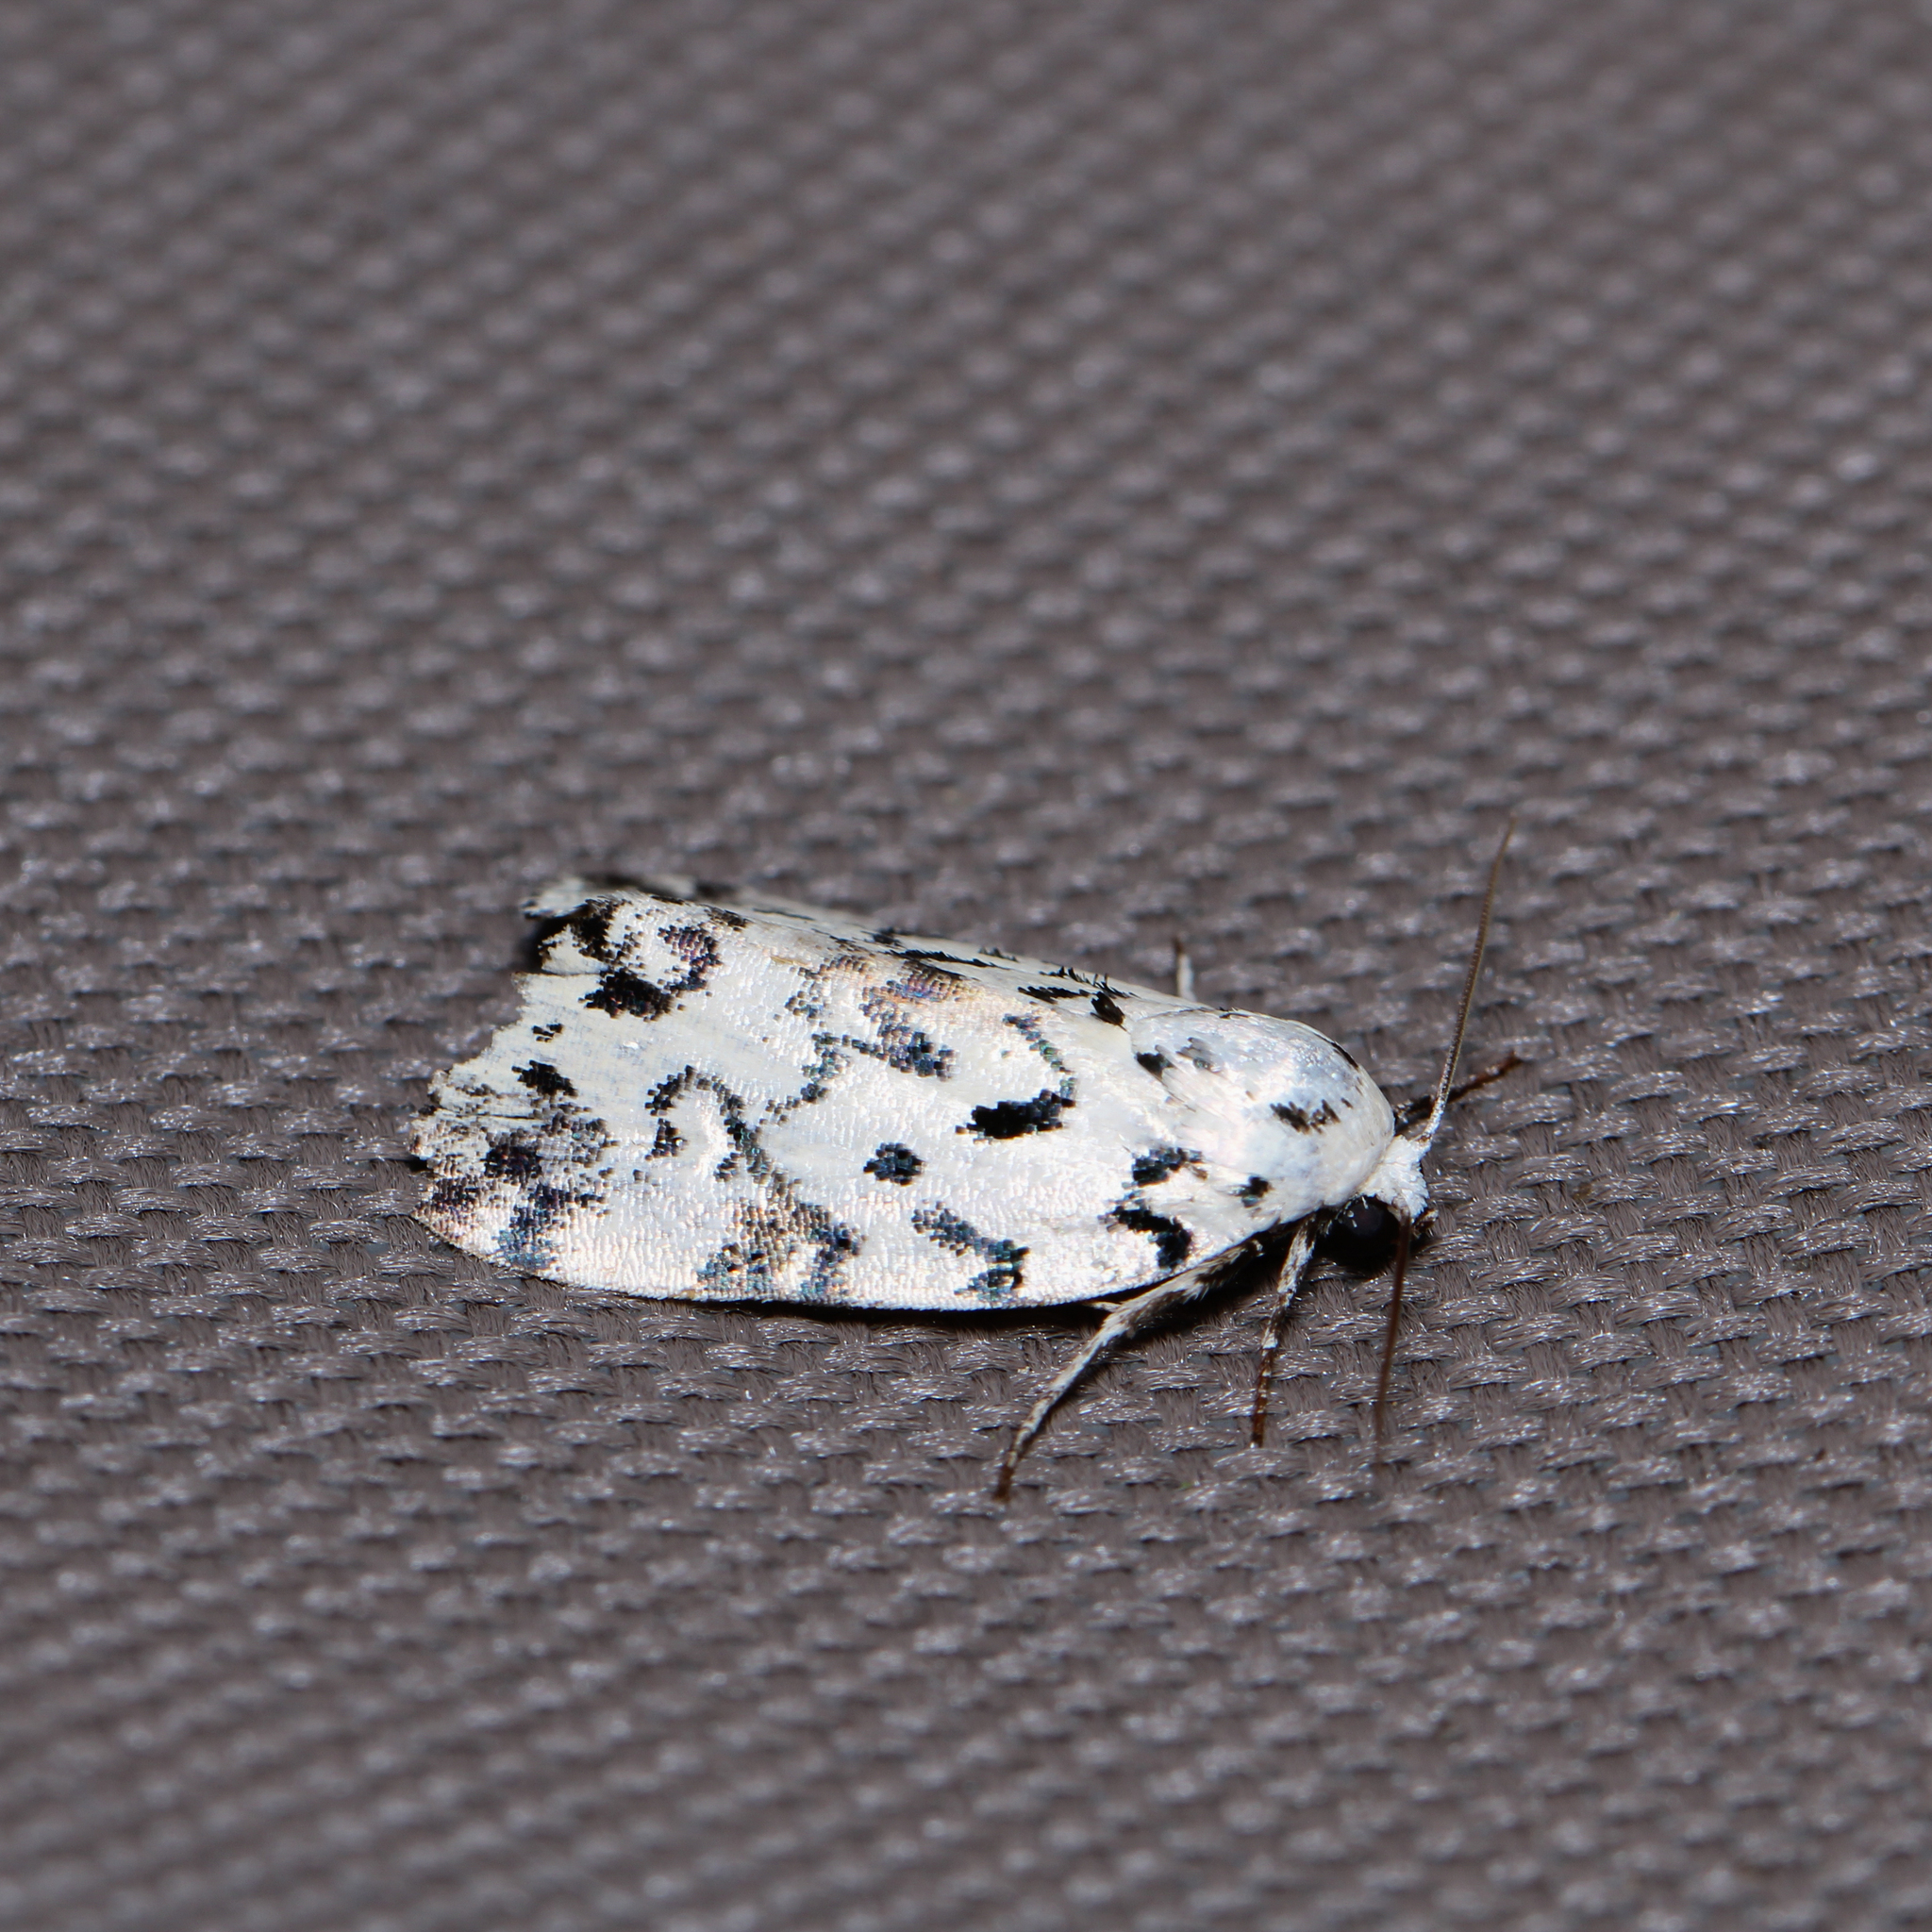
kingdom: Animalia
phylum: Arthropoda
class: Insecta
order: Lepidoptera
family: Noctuidae
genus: Polygrammate
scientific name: Polygrammate hebraeicum
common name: Hebrew moth
